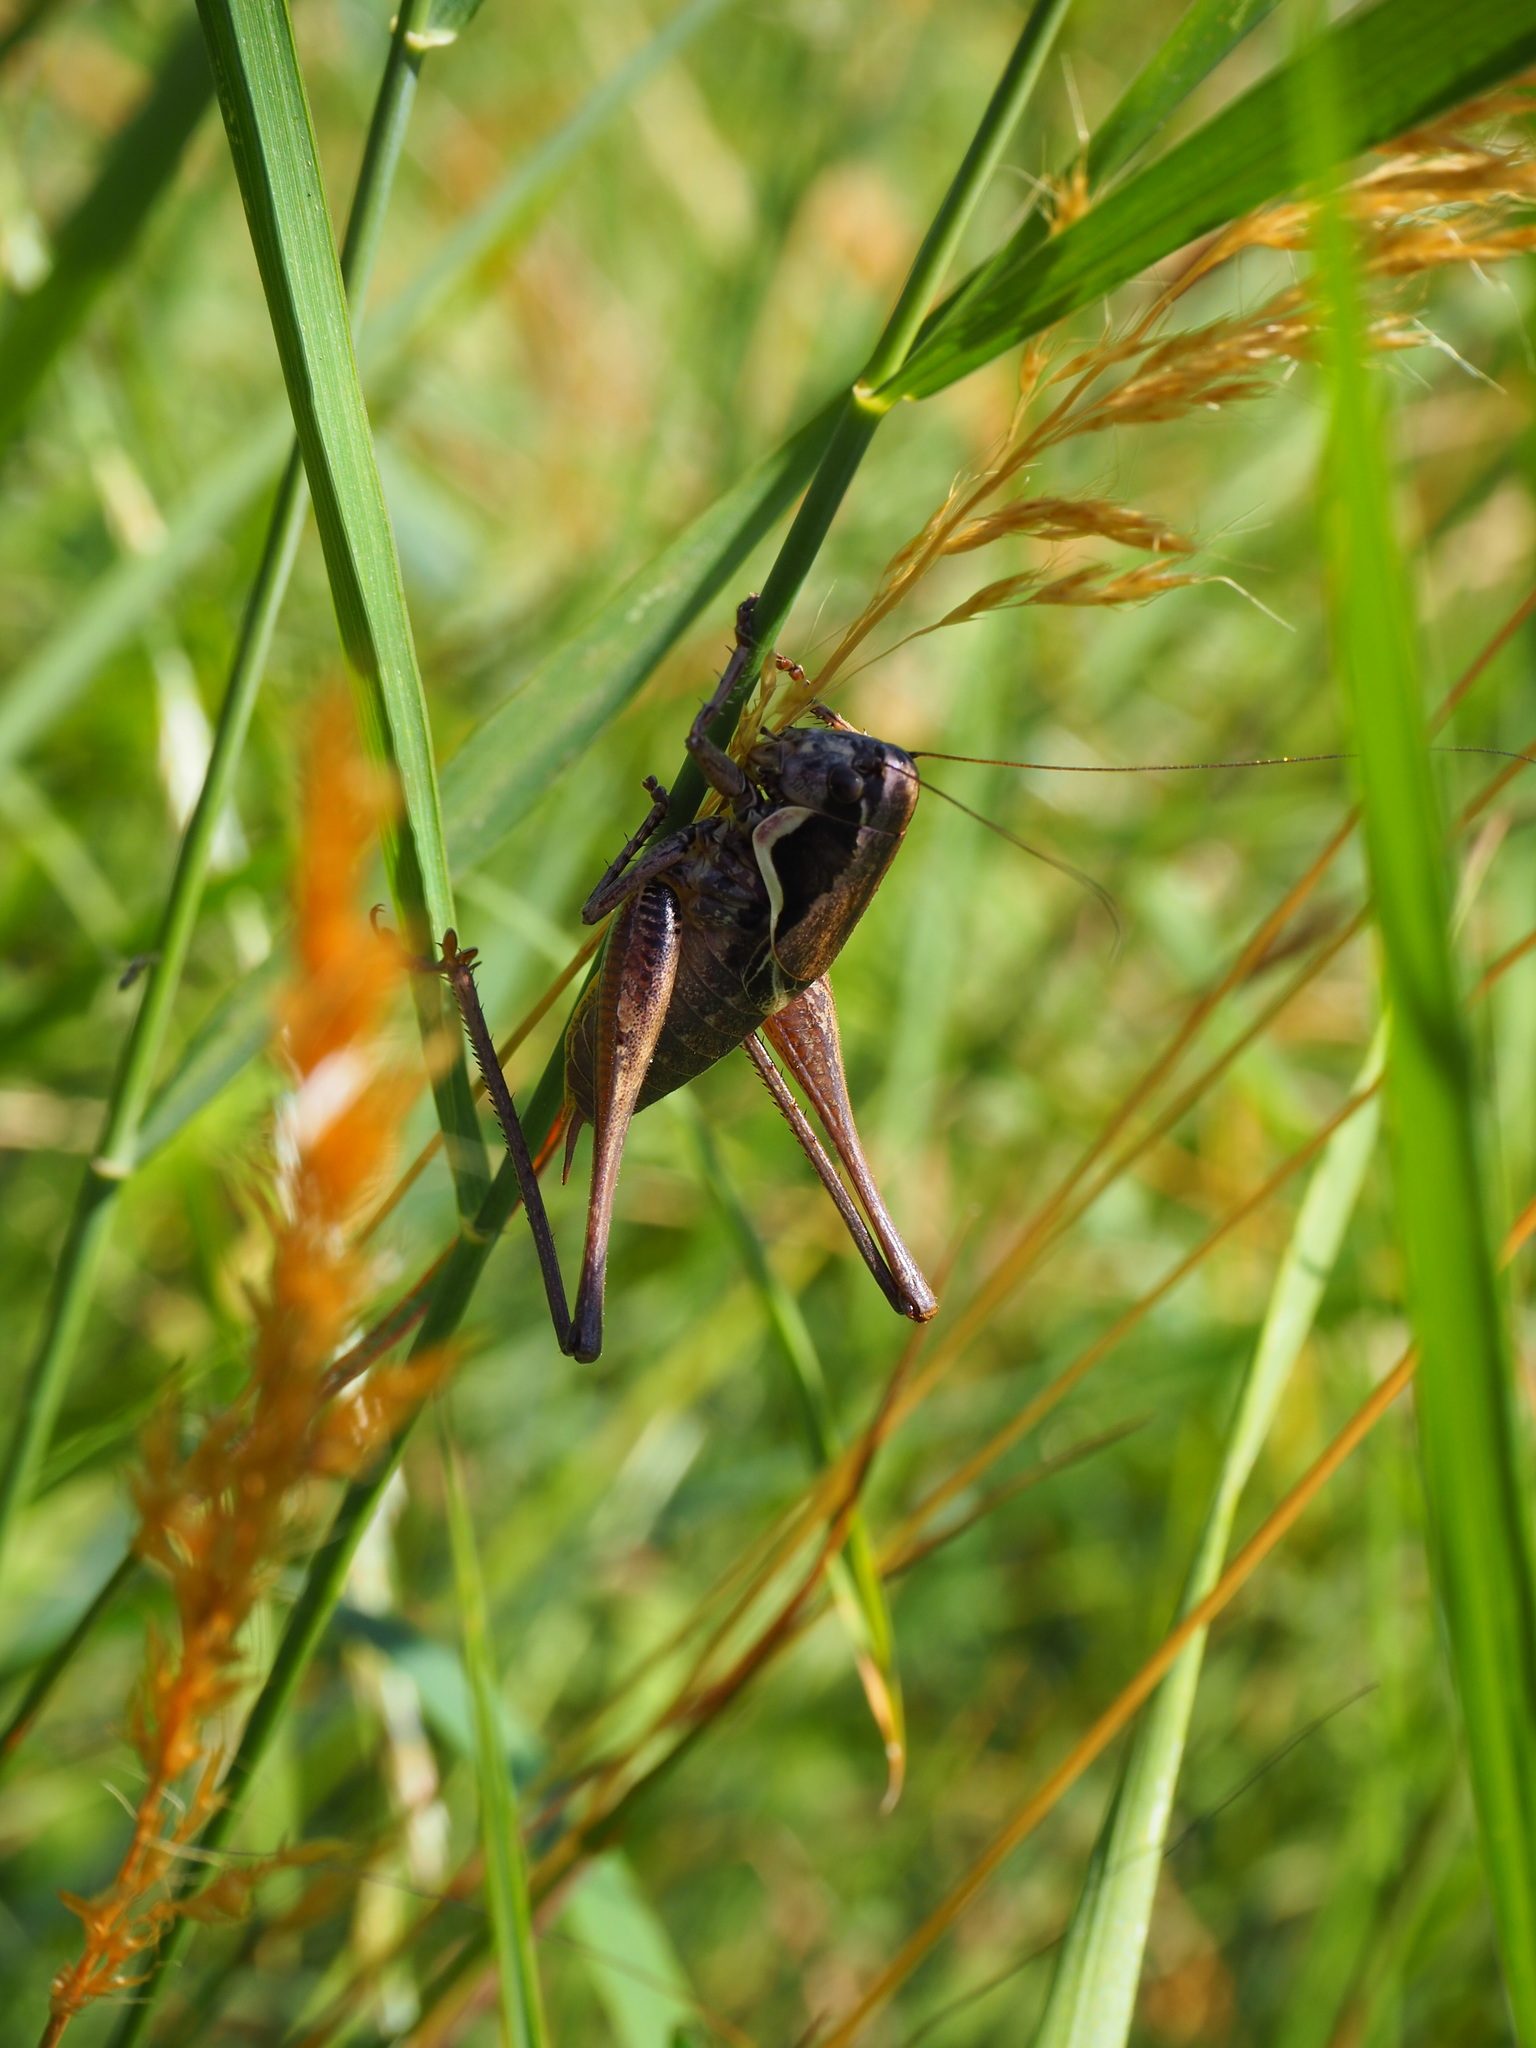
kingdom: Animalia
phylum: Arthropoda
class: Insecta
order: Orthoptera
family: Tettigoniidae
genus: Pholidoptera
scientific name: Pholidoptera femorata
